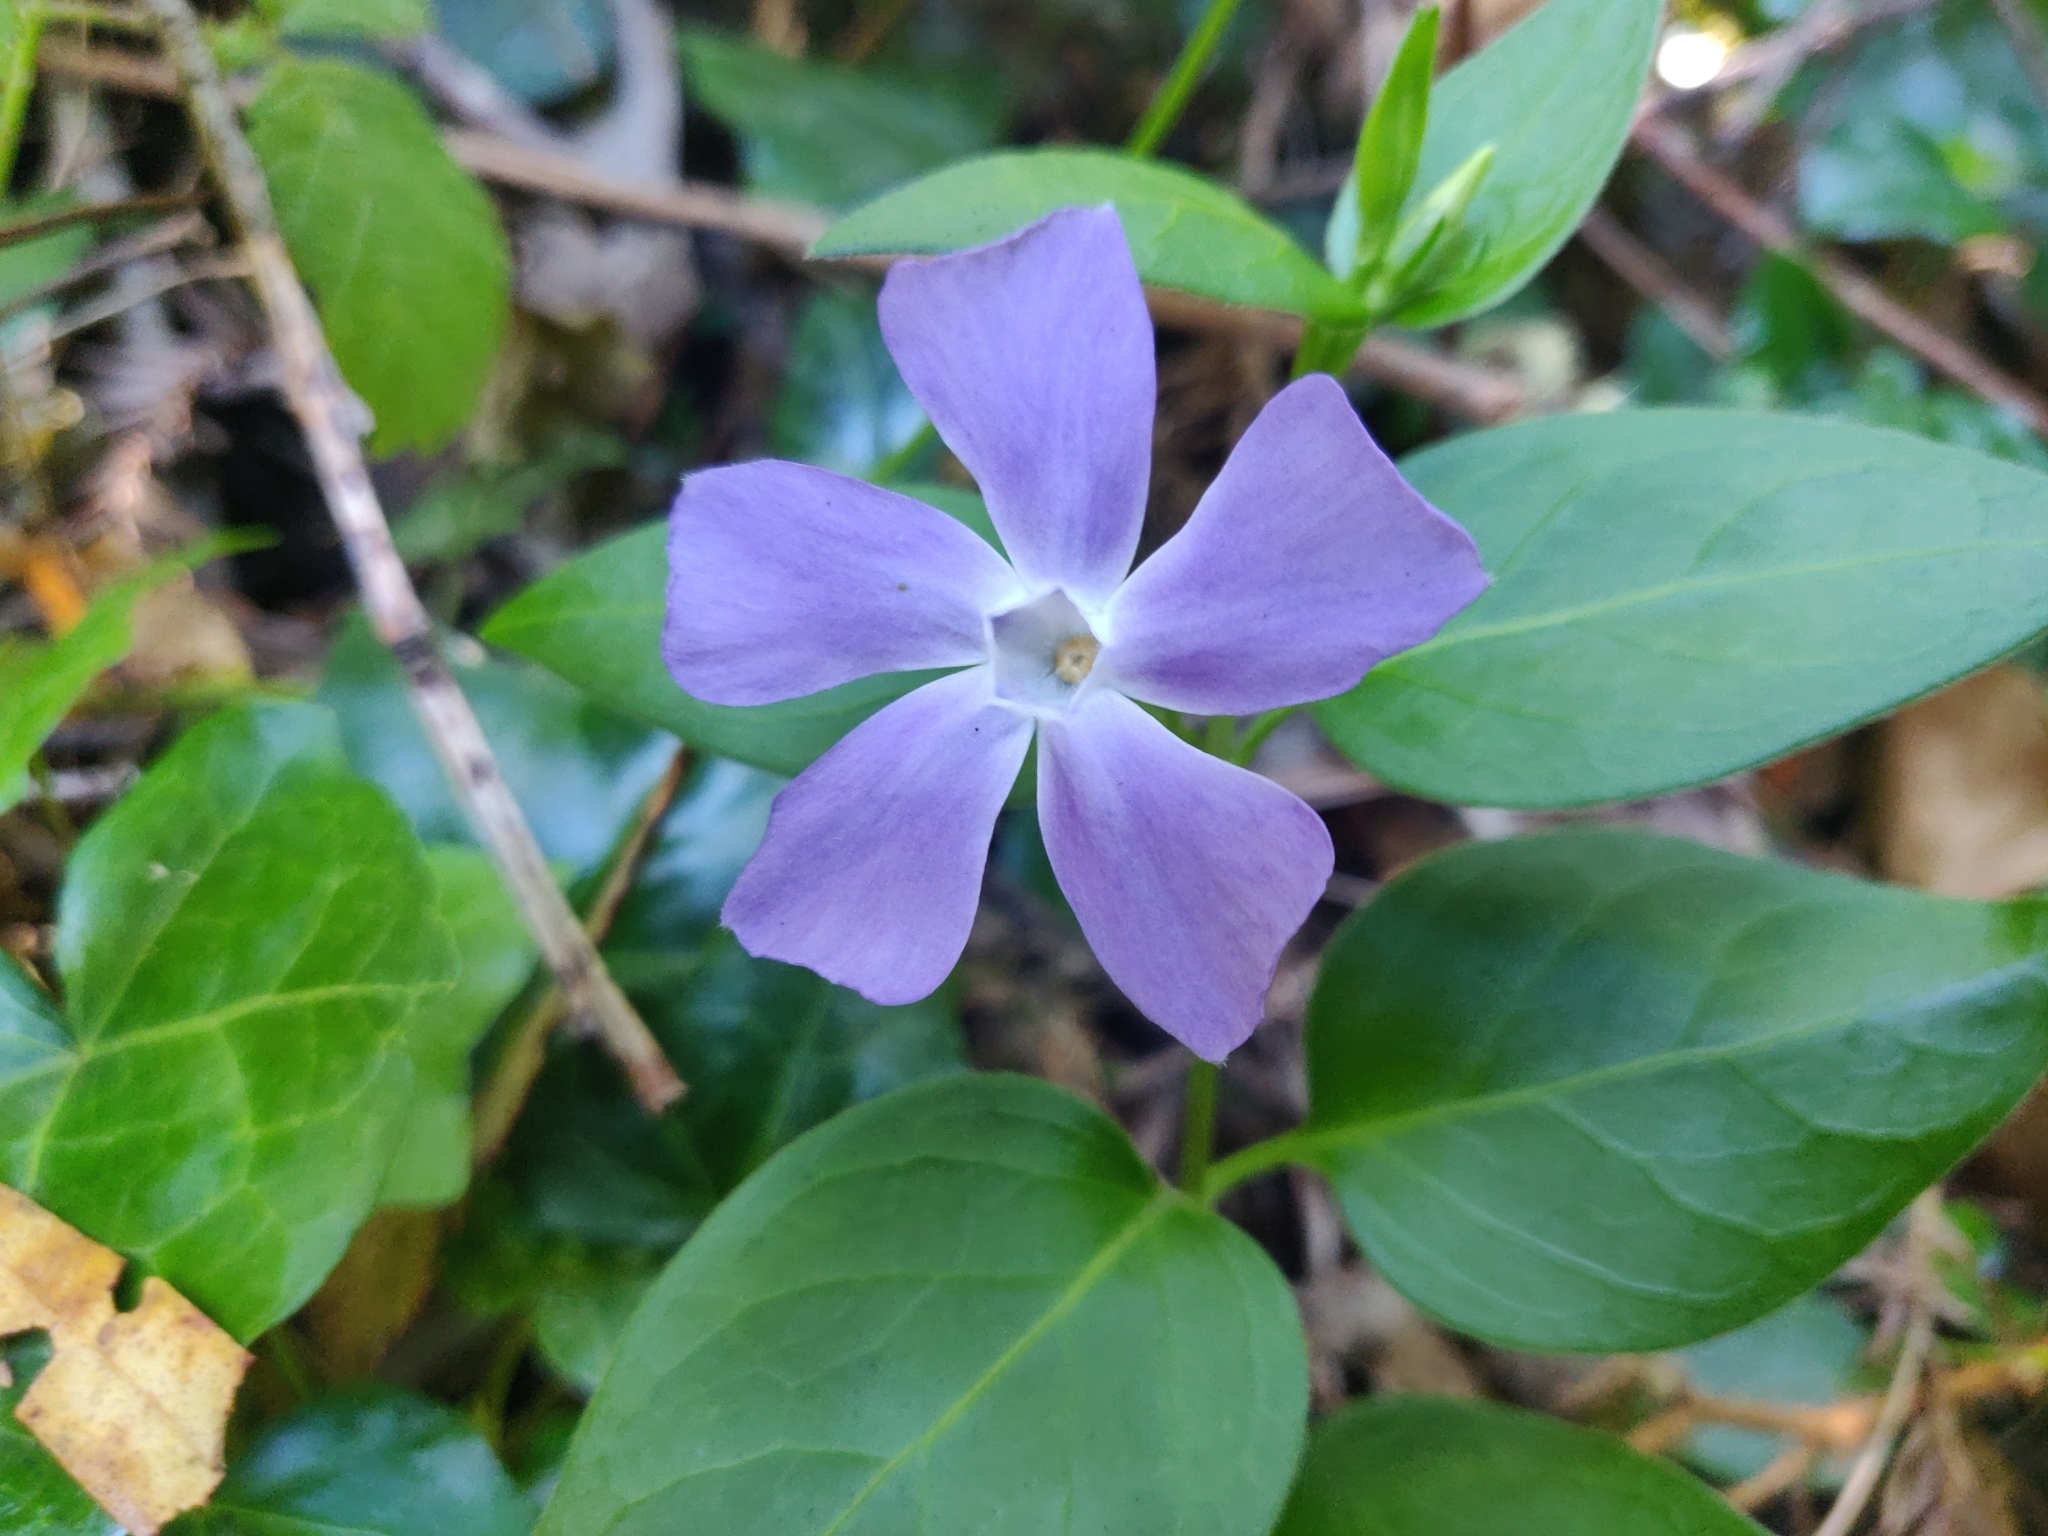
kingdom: Plantae
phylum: Tracheophyta
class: Magnoliopsida
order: Gentianales
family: Apocynaceae
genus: Vinca
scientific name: Vinca major
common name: Greater periwinkle
